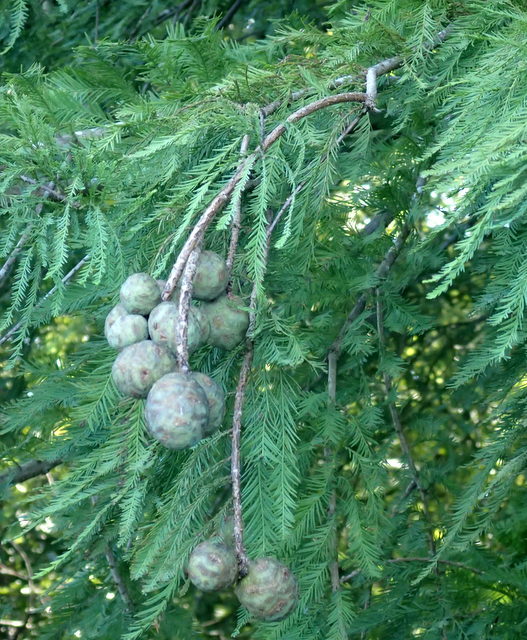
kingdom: Plantae
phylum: Tracheophyta
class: Pinopsida
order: Pinales
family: Cupressaceae
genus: Taxodium
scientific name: Taxodium distichum
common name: Bald cypress
